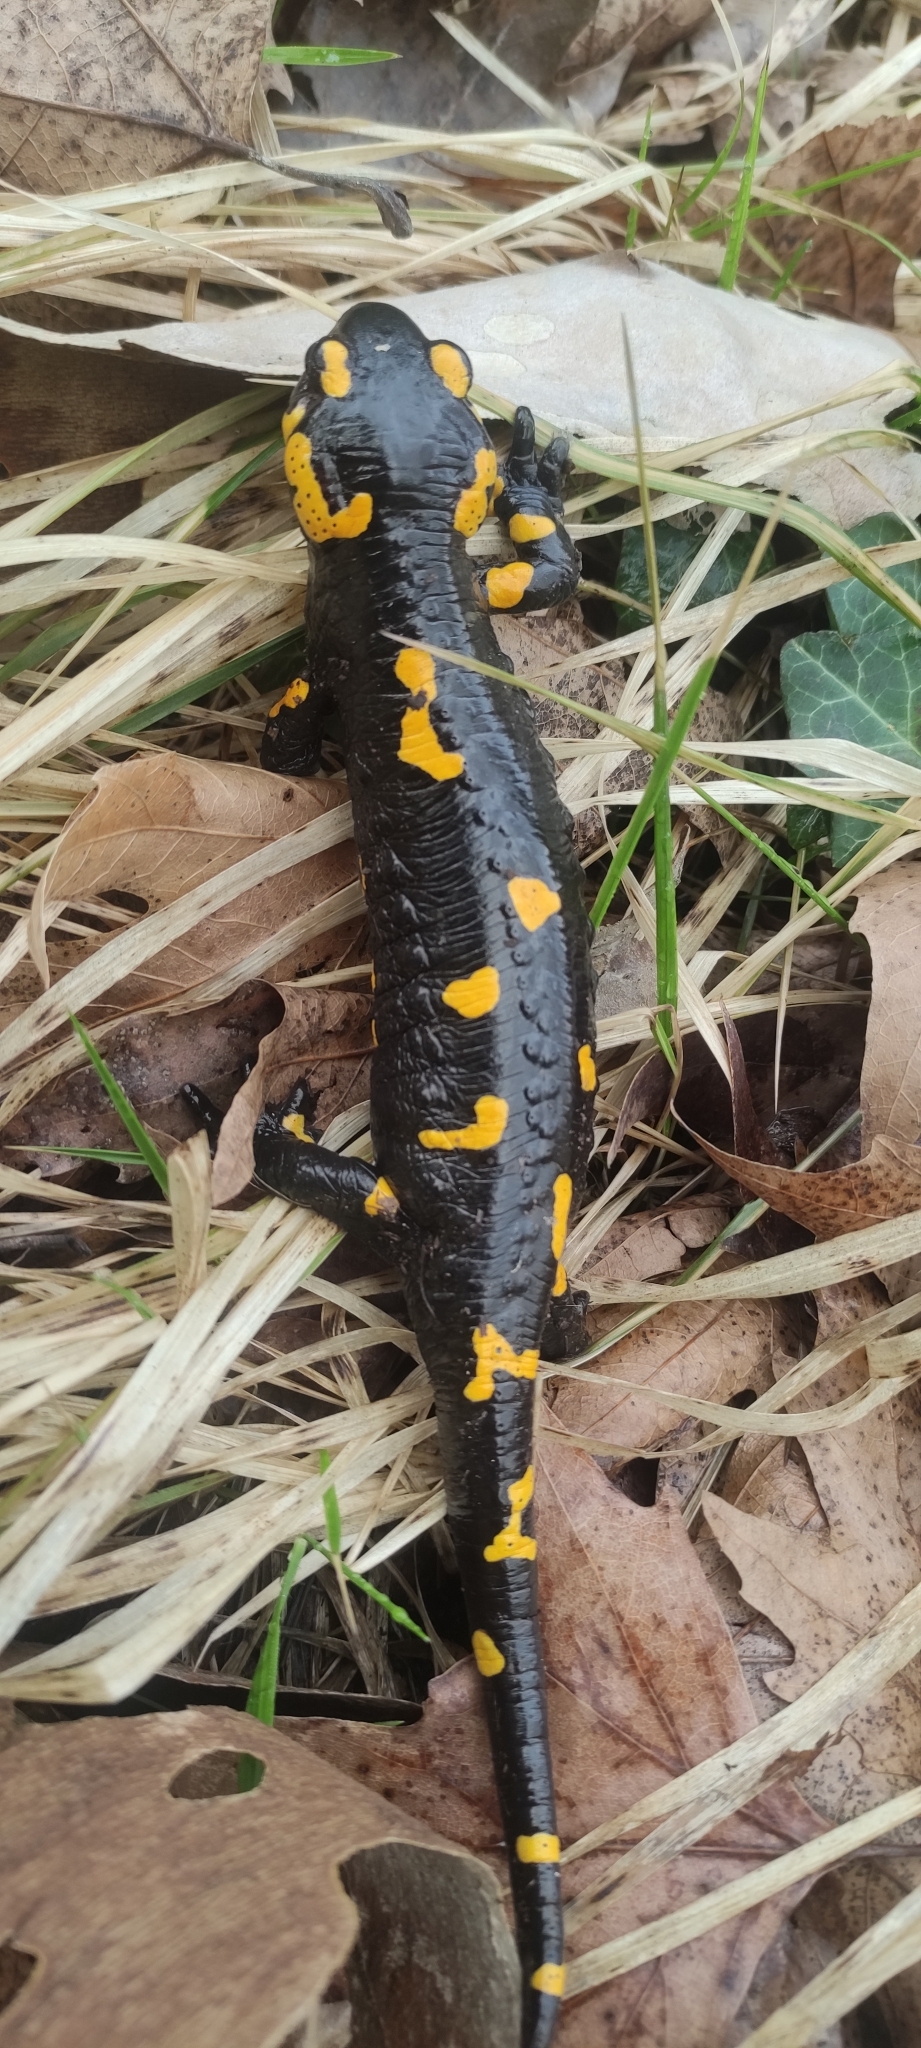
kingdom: Animalia
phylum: Chordata
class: Amphibia
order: Caudata
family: Salamandridae
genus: Salamandra
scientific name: Salamandra salamandra
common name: Fire salamander
